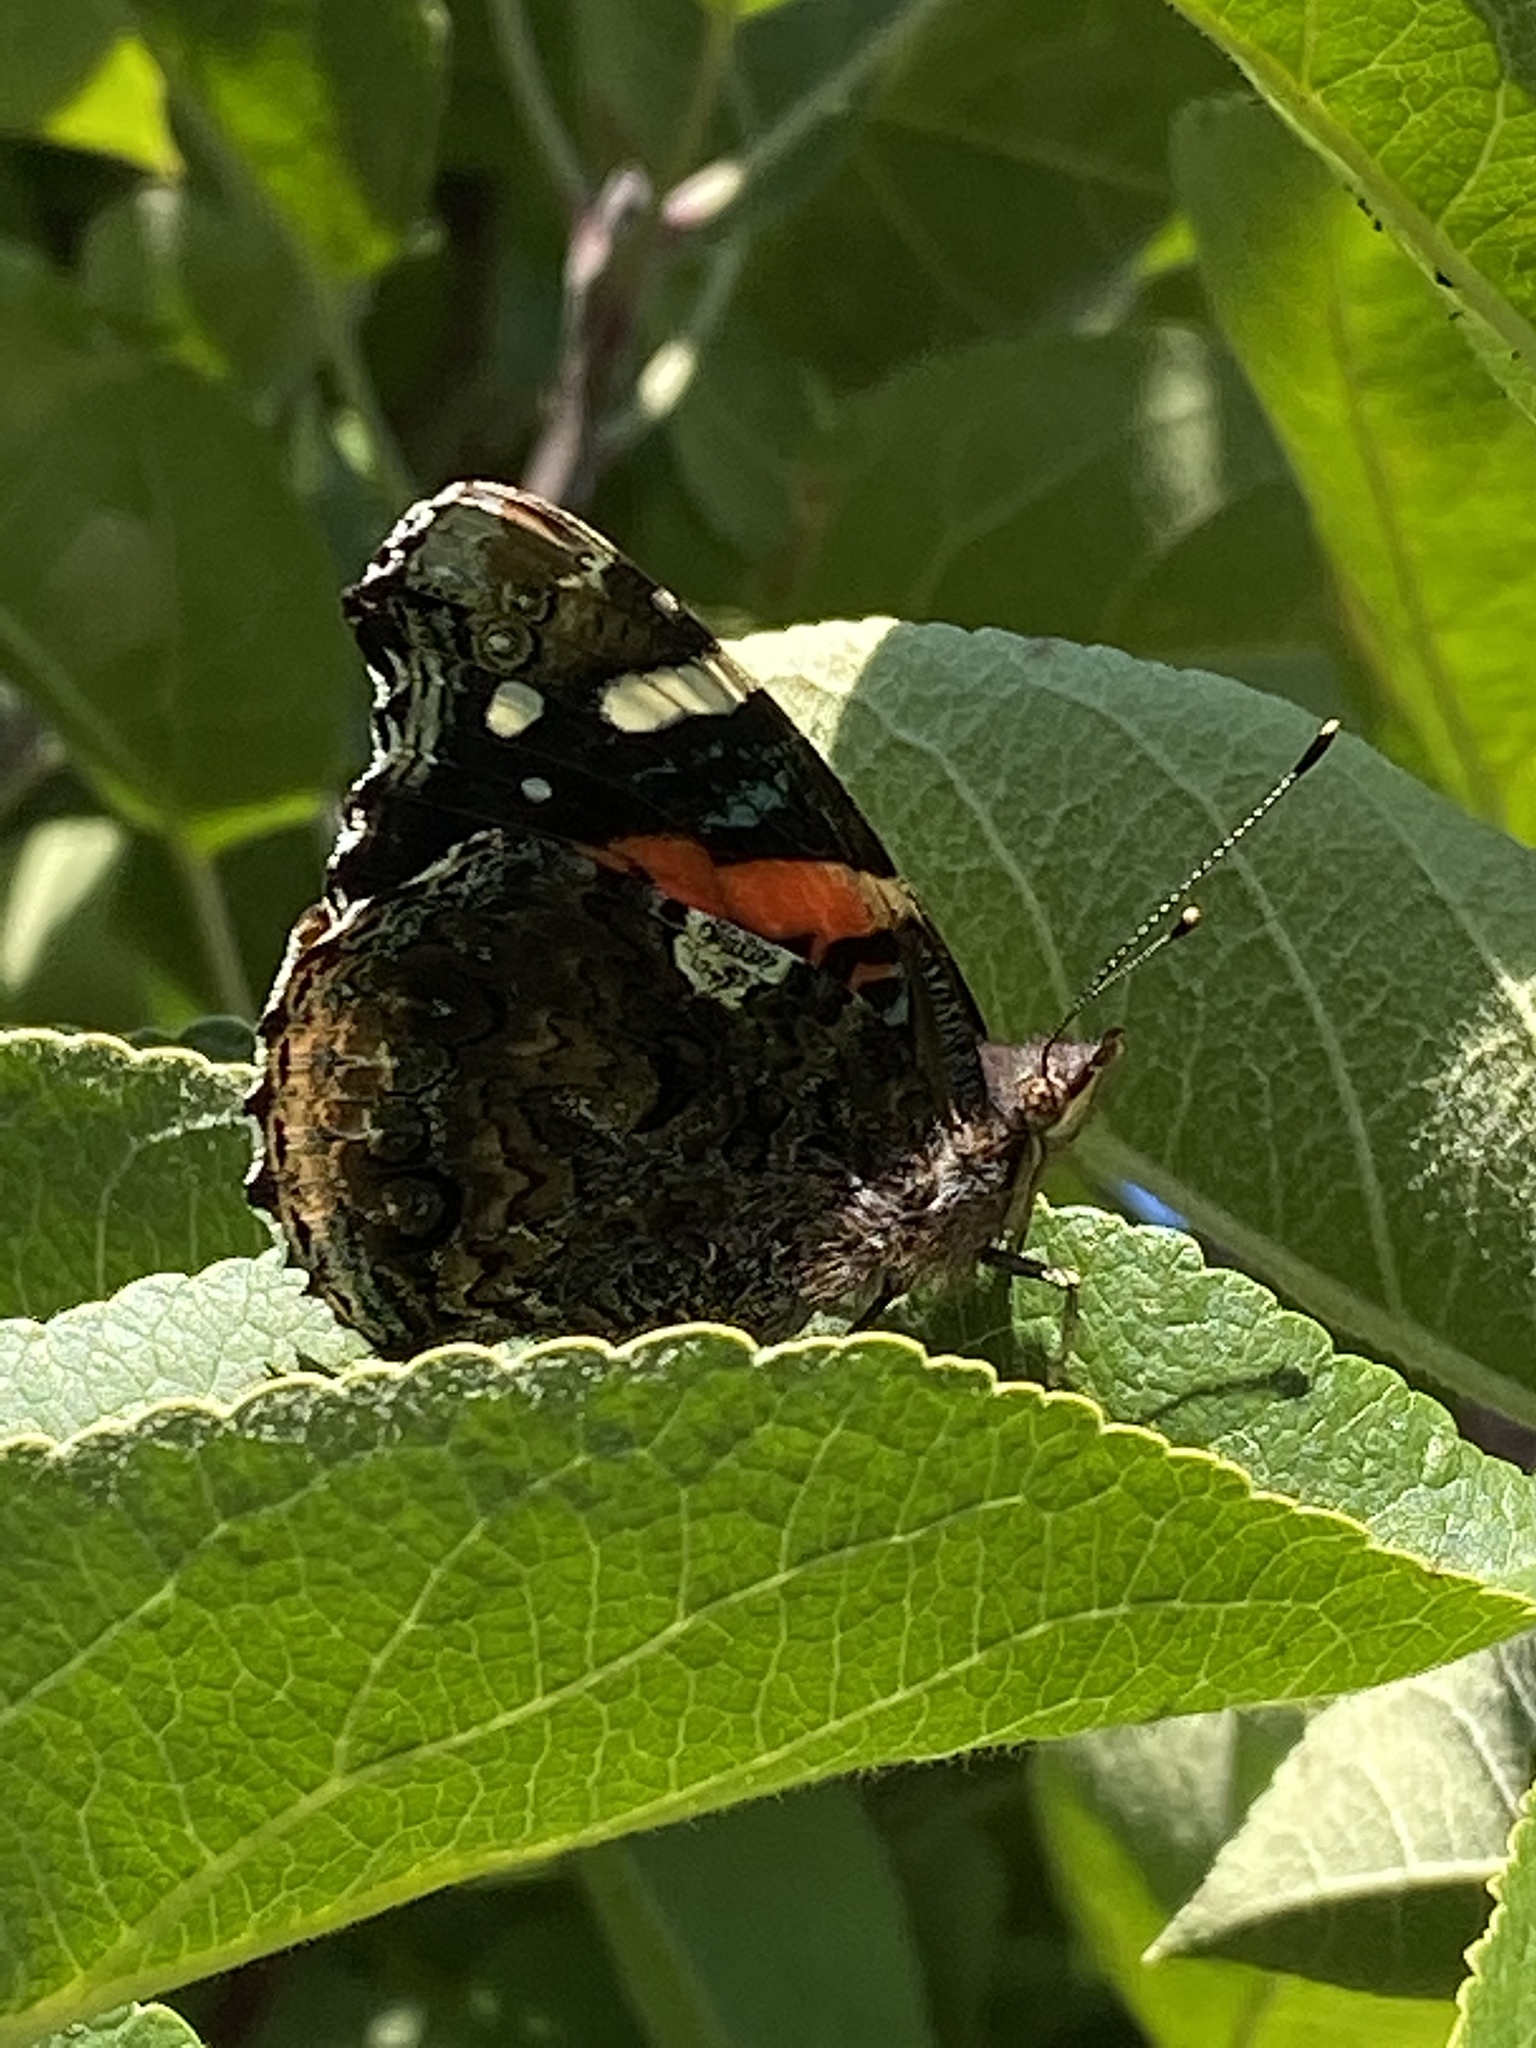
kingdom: Animalia
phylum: Arthropoda
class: Insecta
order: Lepidoptera
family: Nymphalidae
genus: Vanessa
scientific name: Vanessa atalanta
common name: Red admiral
